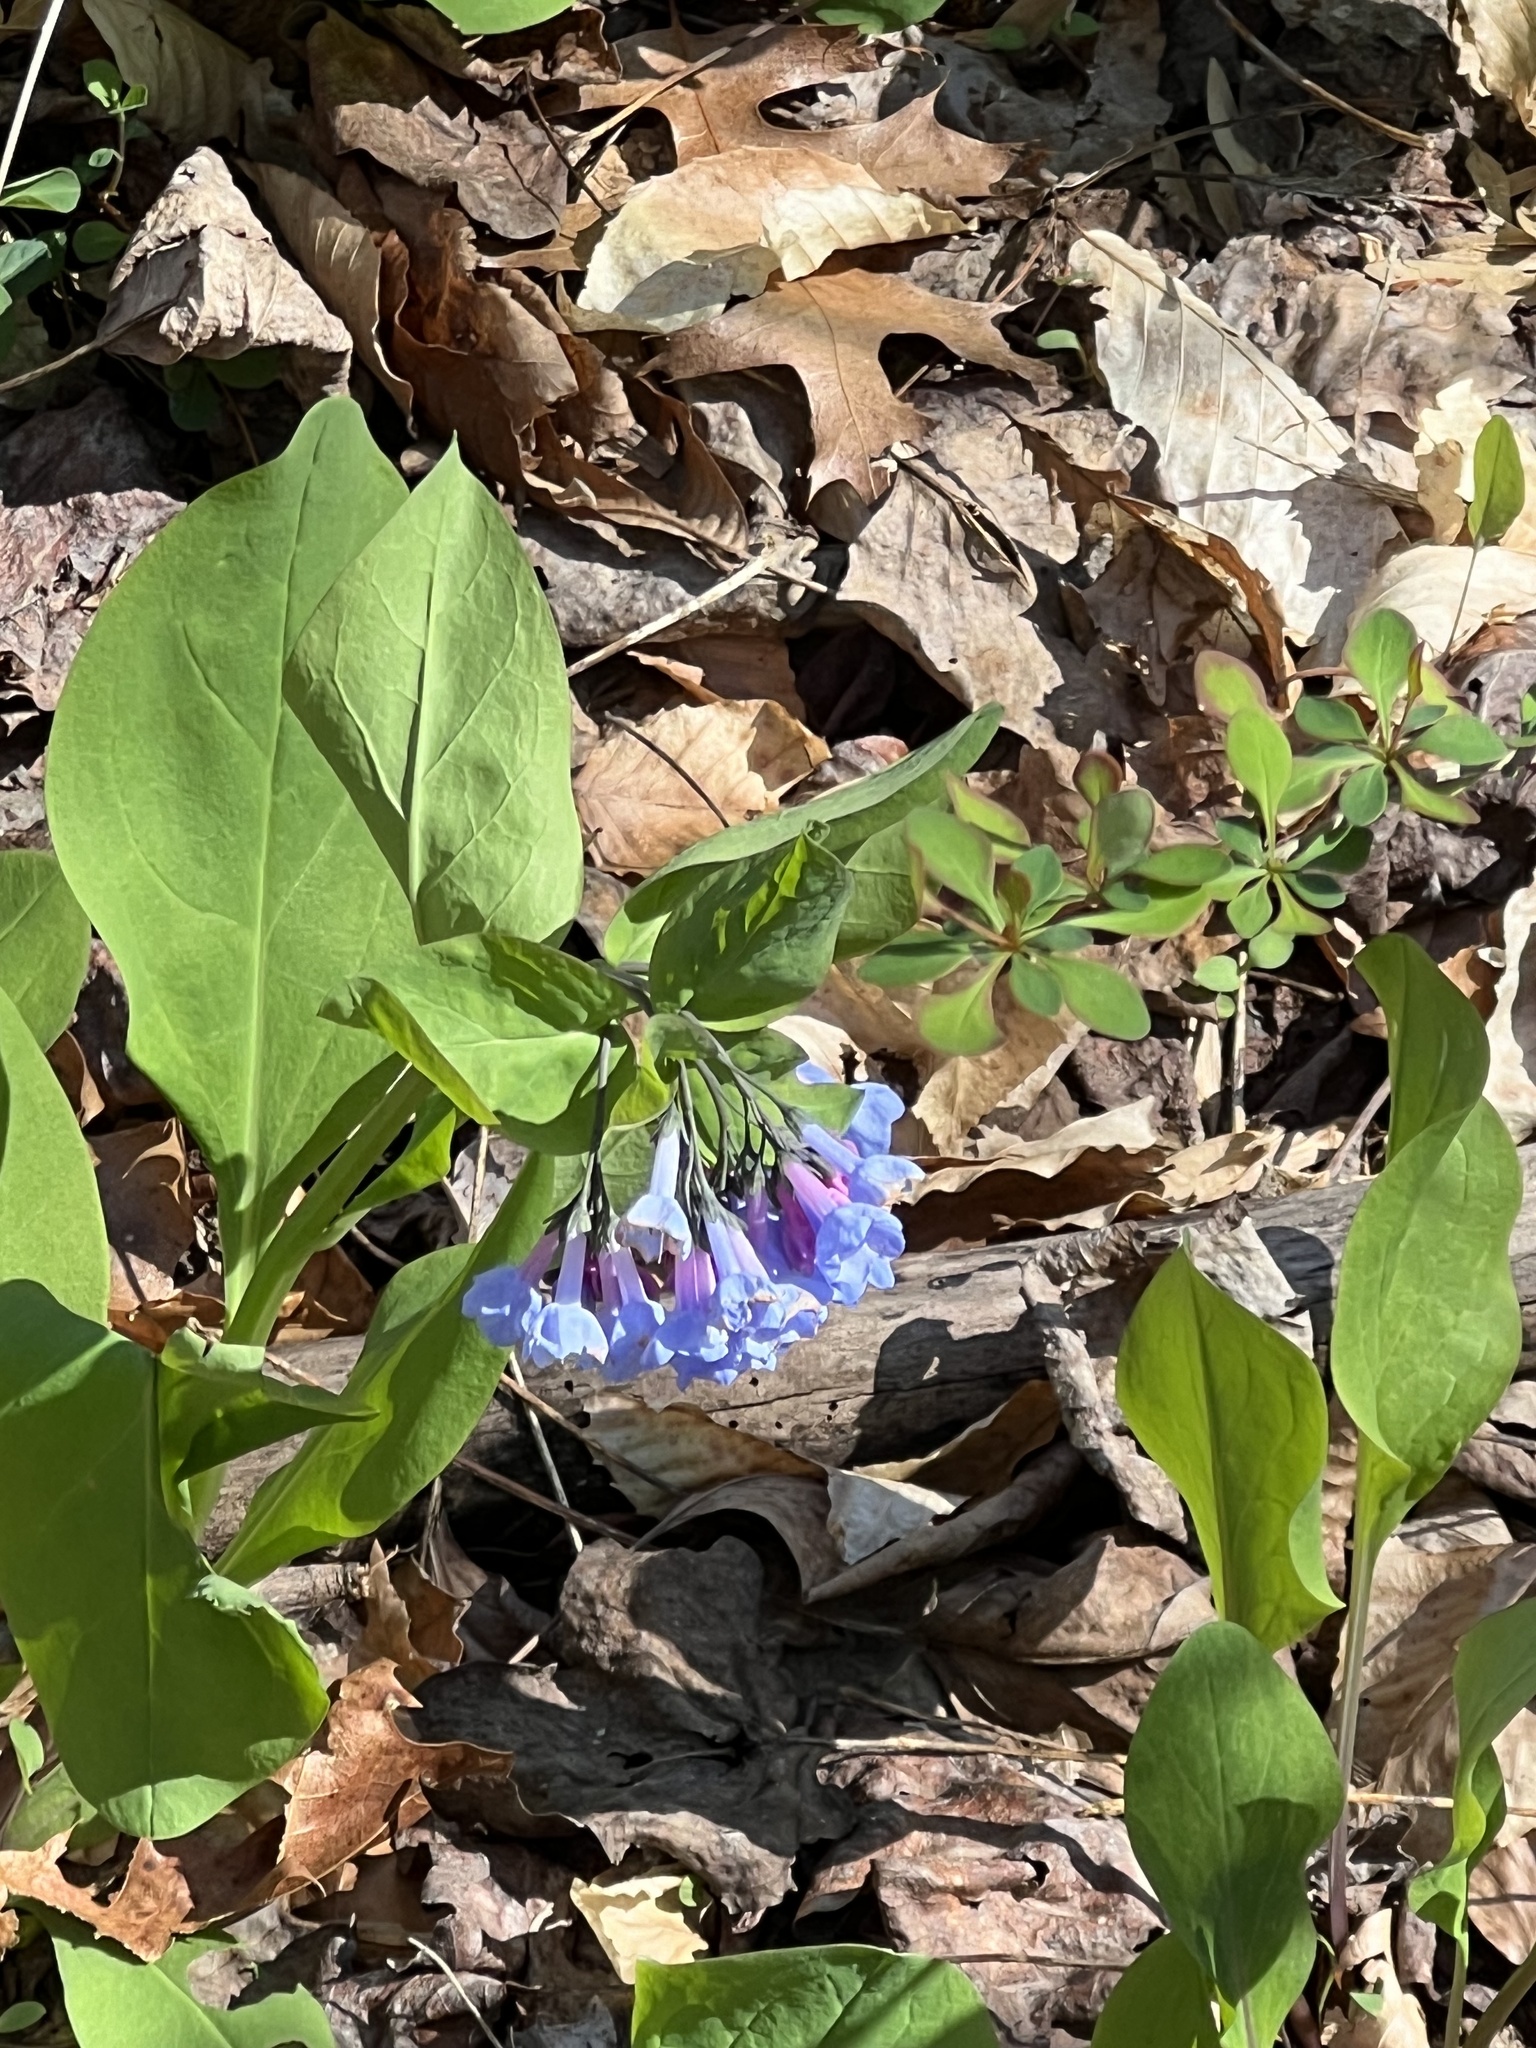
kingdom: Plantae
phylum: Tracheophyta
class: Magnoliopsida
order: Boraginales
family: Boraginaceae
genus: Mertensia
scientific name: Mertensia virginica
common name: Virginia bluebells
